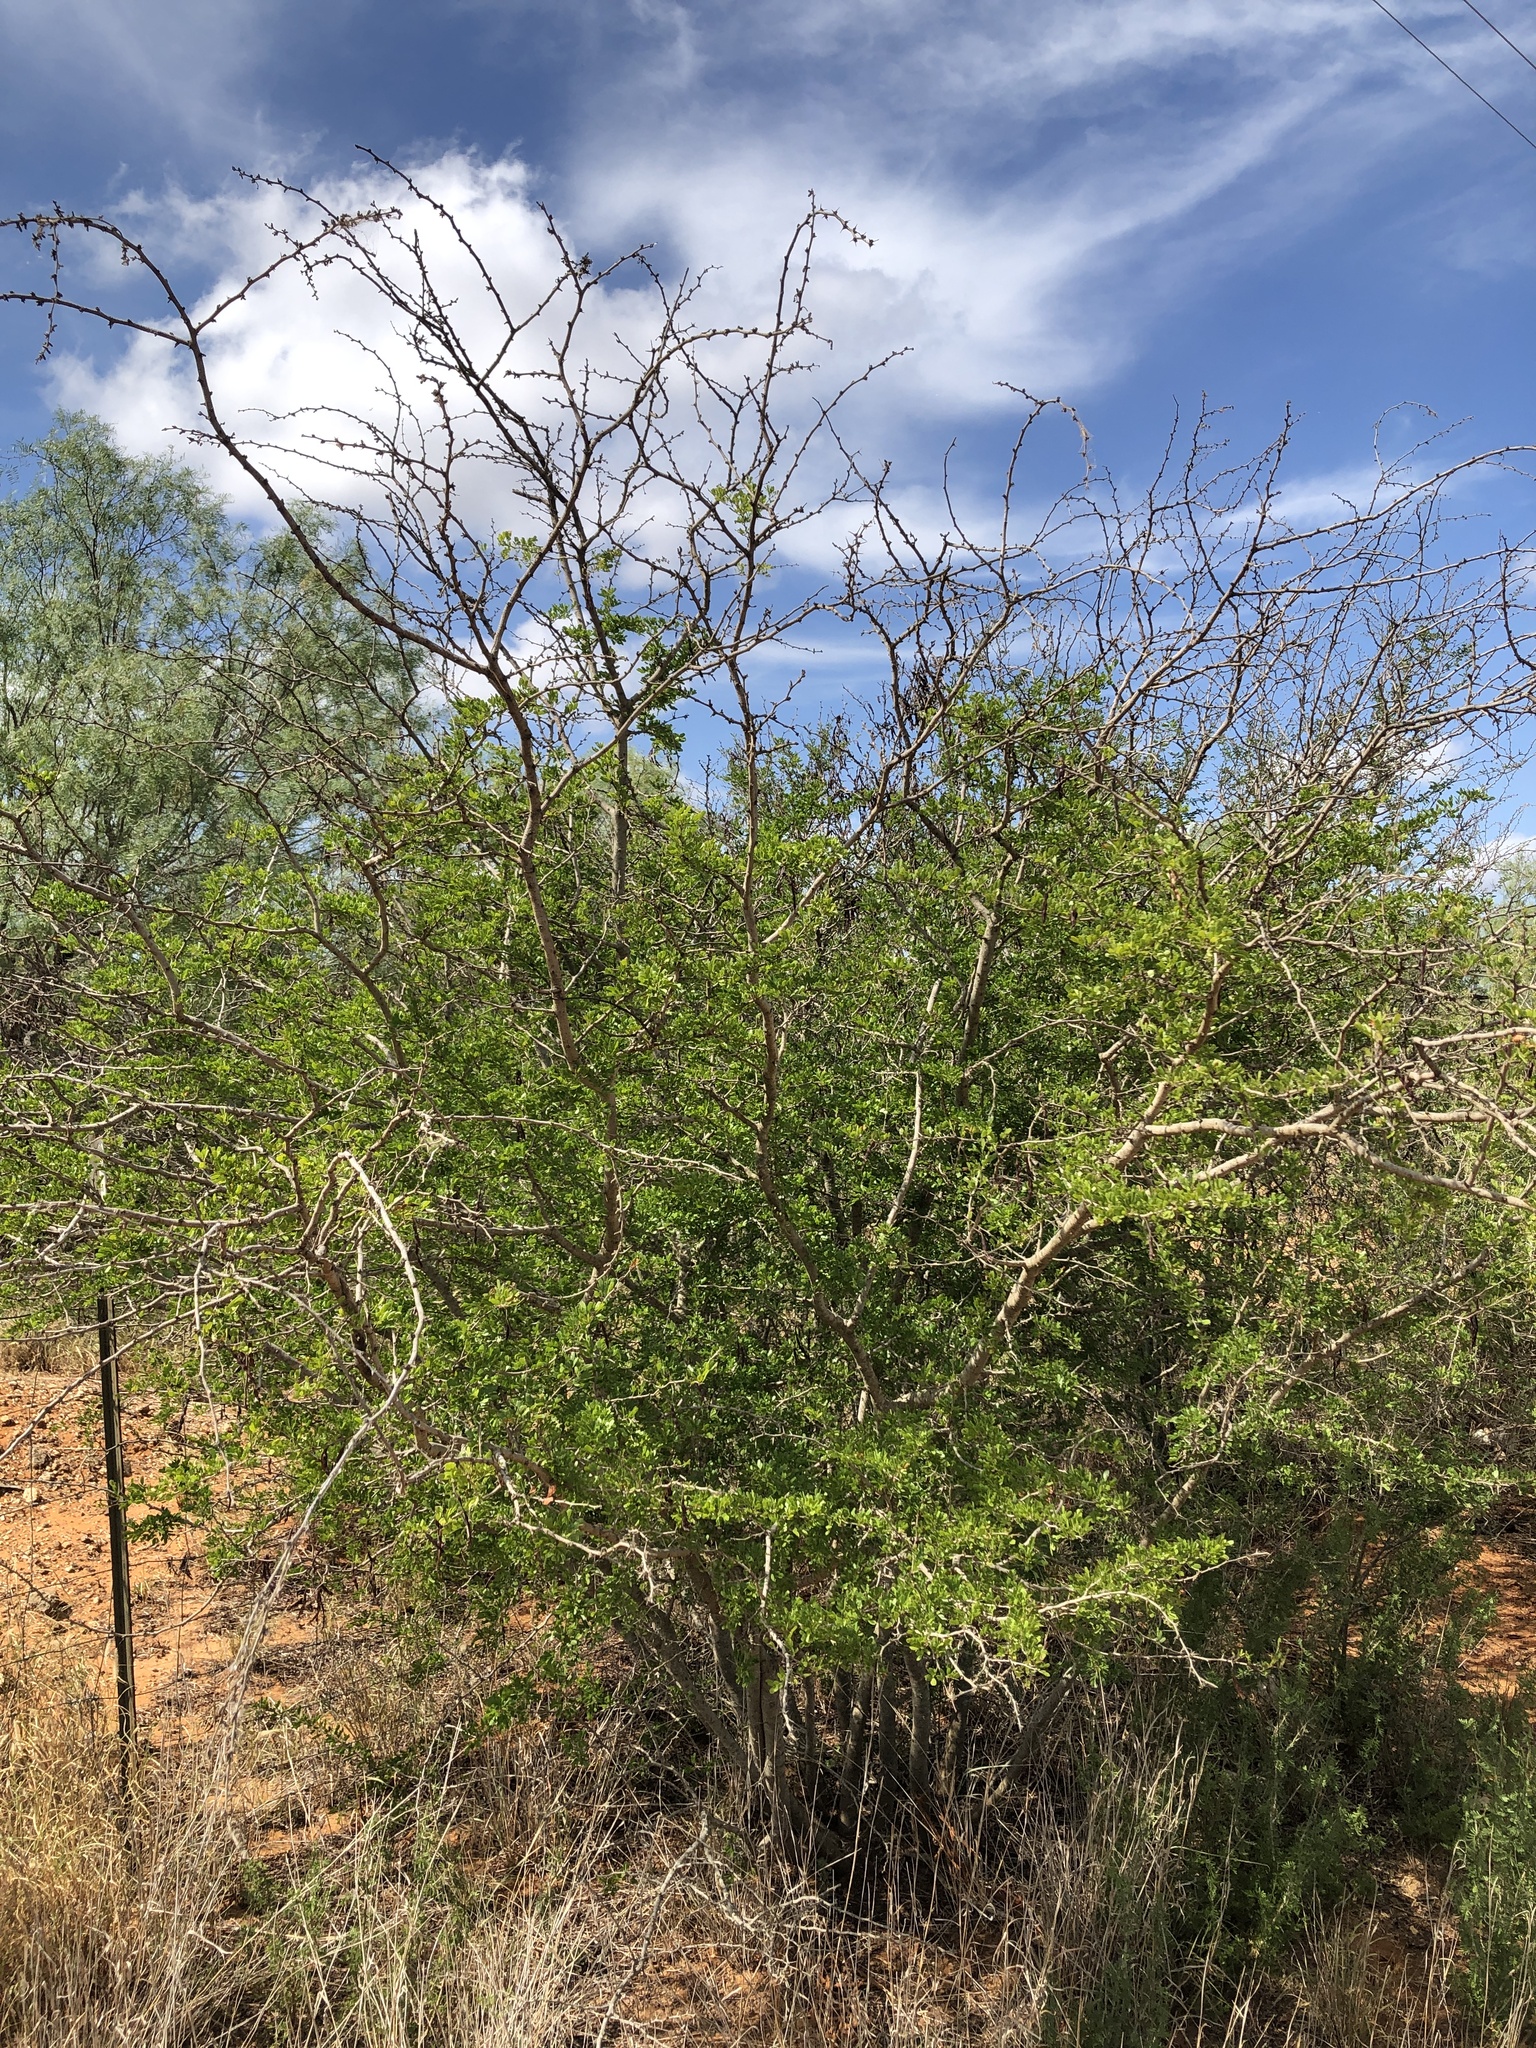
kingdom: Plantae
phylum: Tracheophyta
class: Magnoliopsida
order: Fabales
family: Fabaceae
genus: Vachellia
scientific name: Vachellia rigidula
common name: Blackbrush
